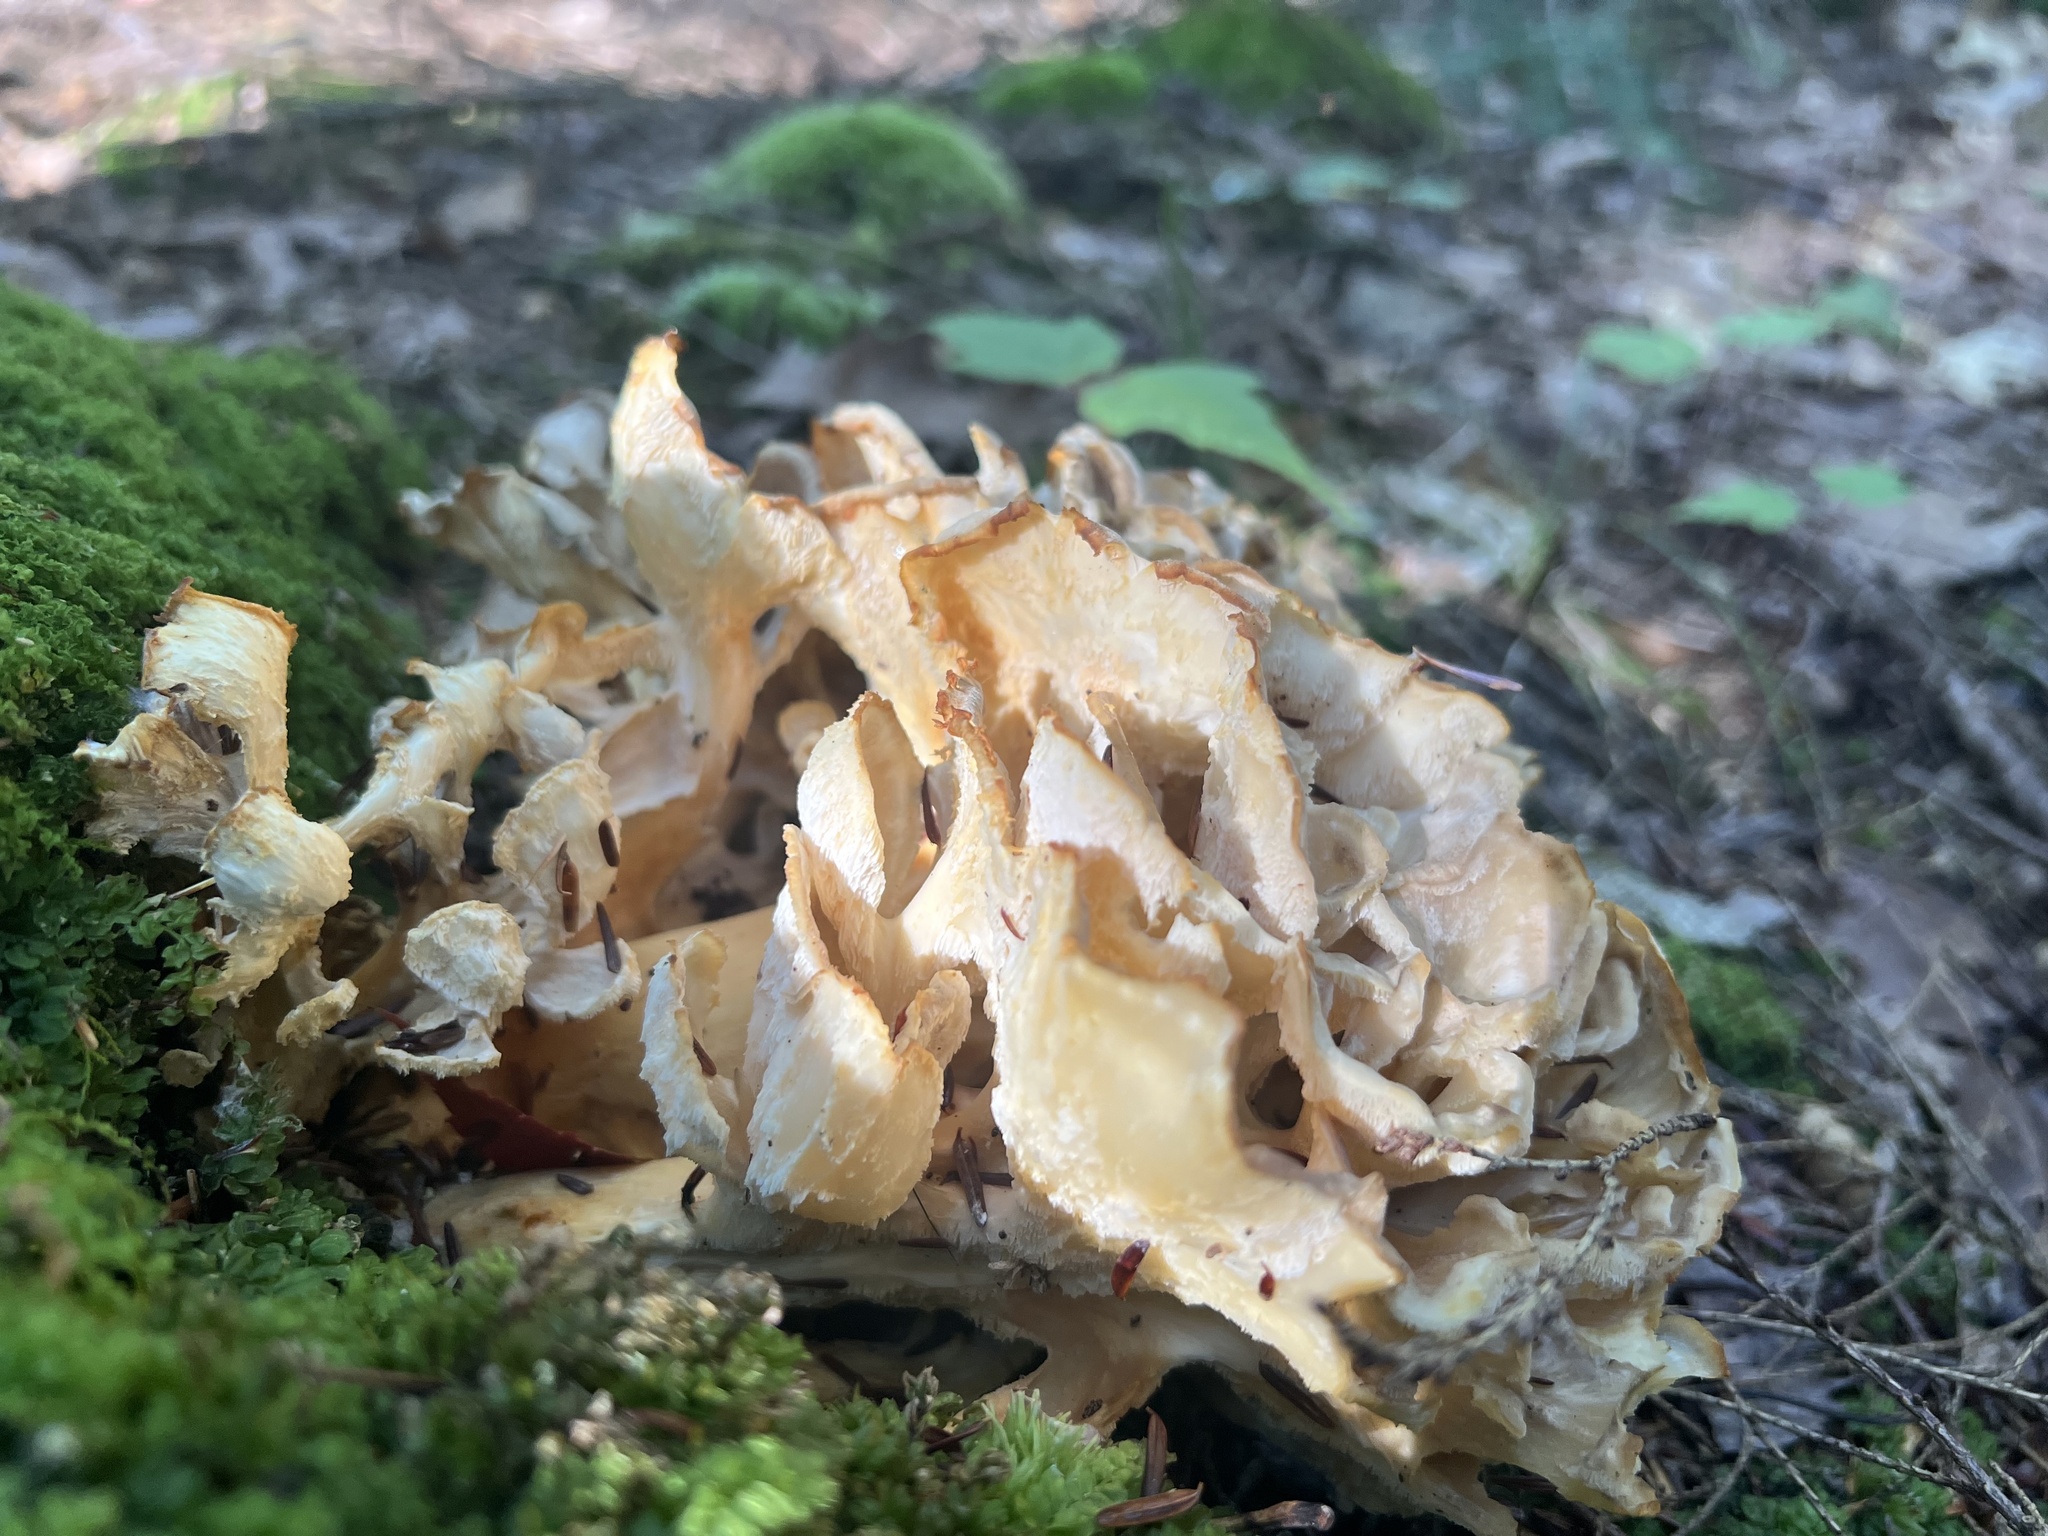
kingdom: Fungi
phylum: Basidiomycota
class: Agaricomycetes
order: Polyporales
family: Grifolaceae
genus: Grifola
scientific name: Grifola frondosa
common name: Hen of the woods
